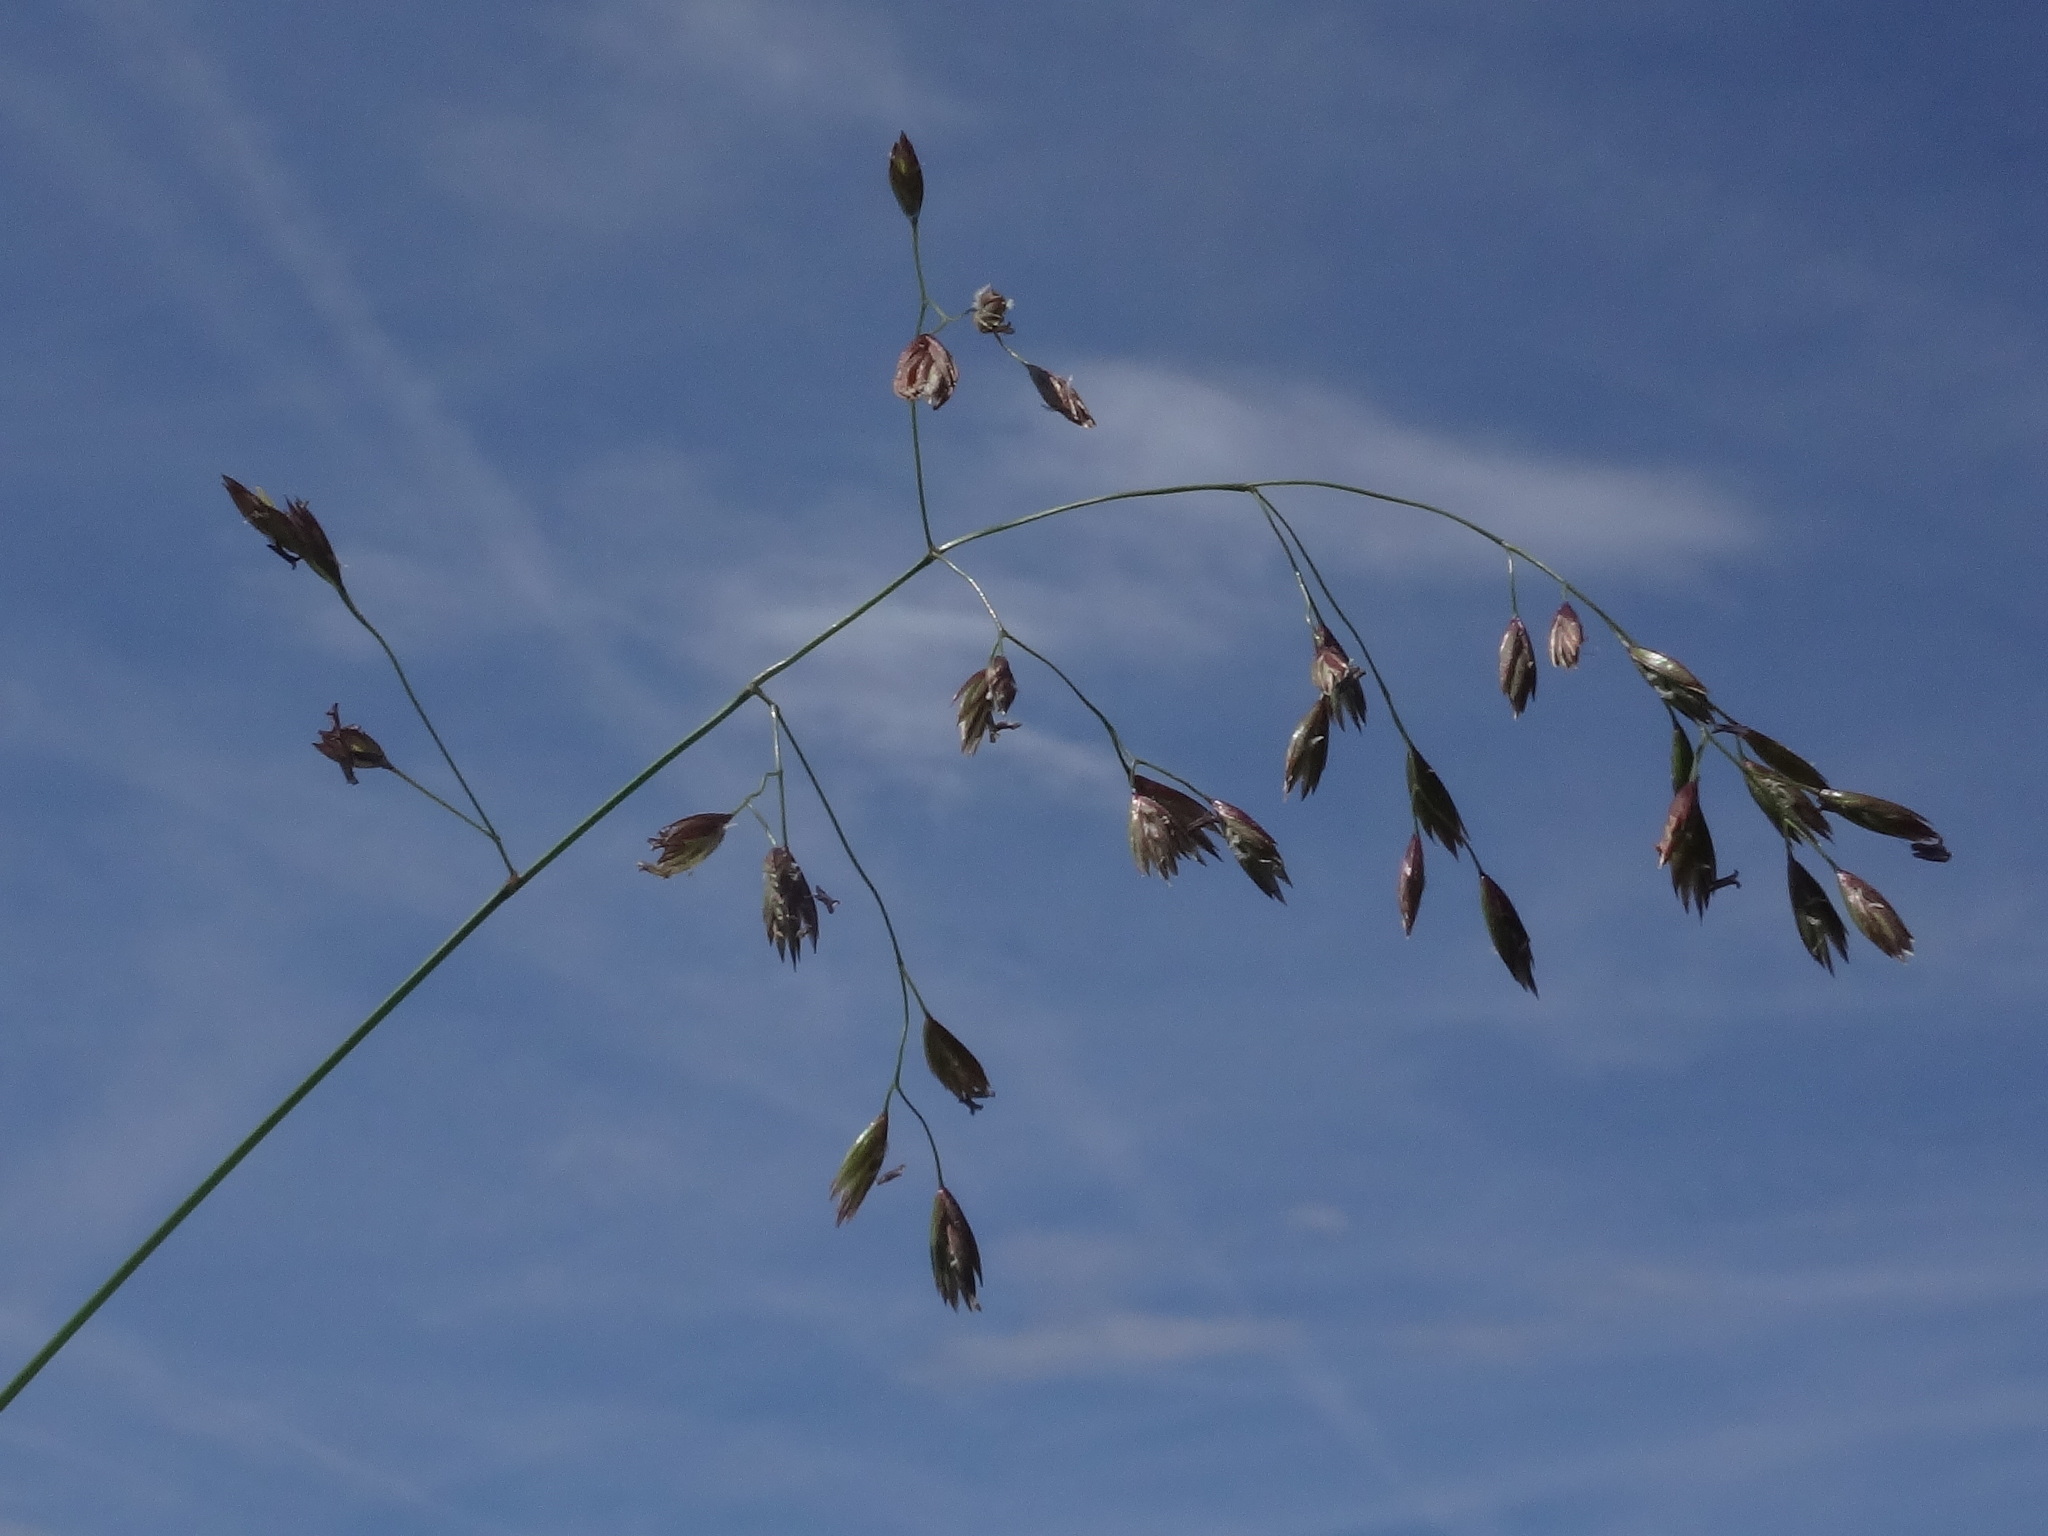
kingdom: Plantae
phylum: Tracheophyta
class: Liliopsida
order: Poales
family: Poaceae
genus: Festuca
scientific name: Festuca pulchella
